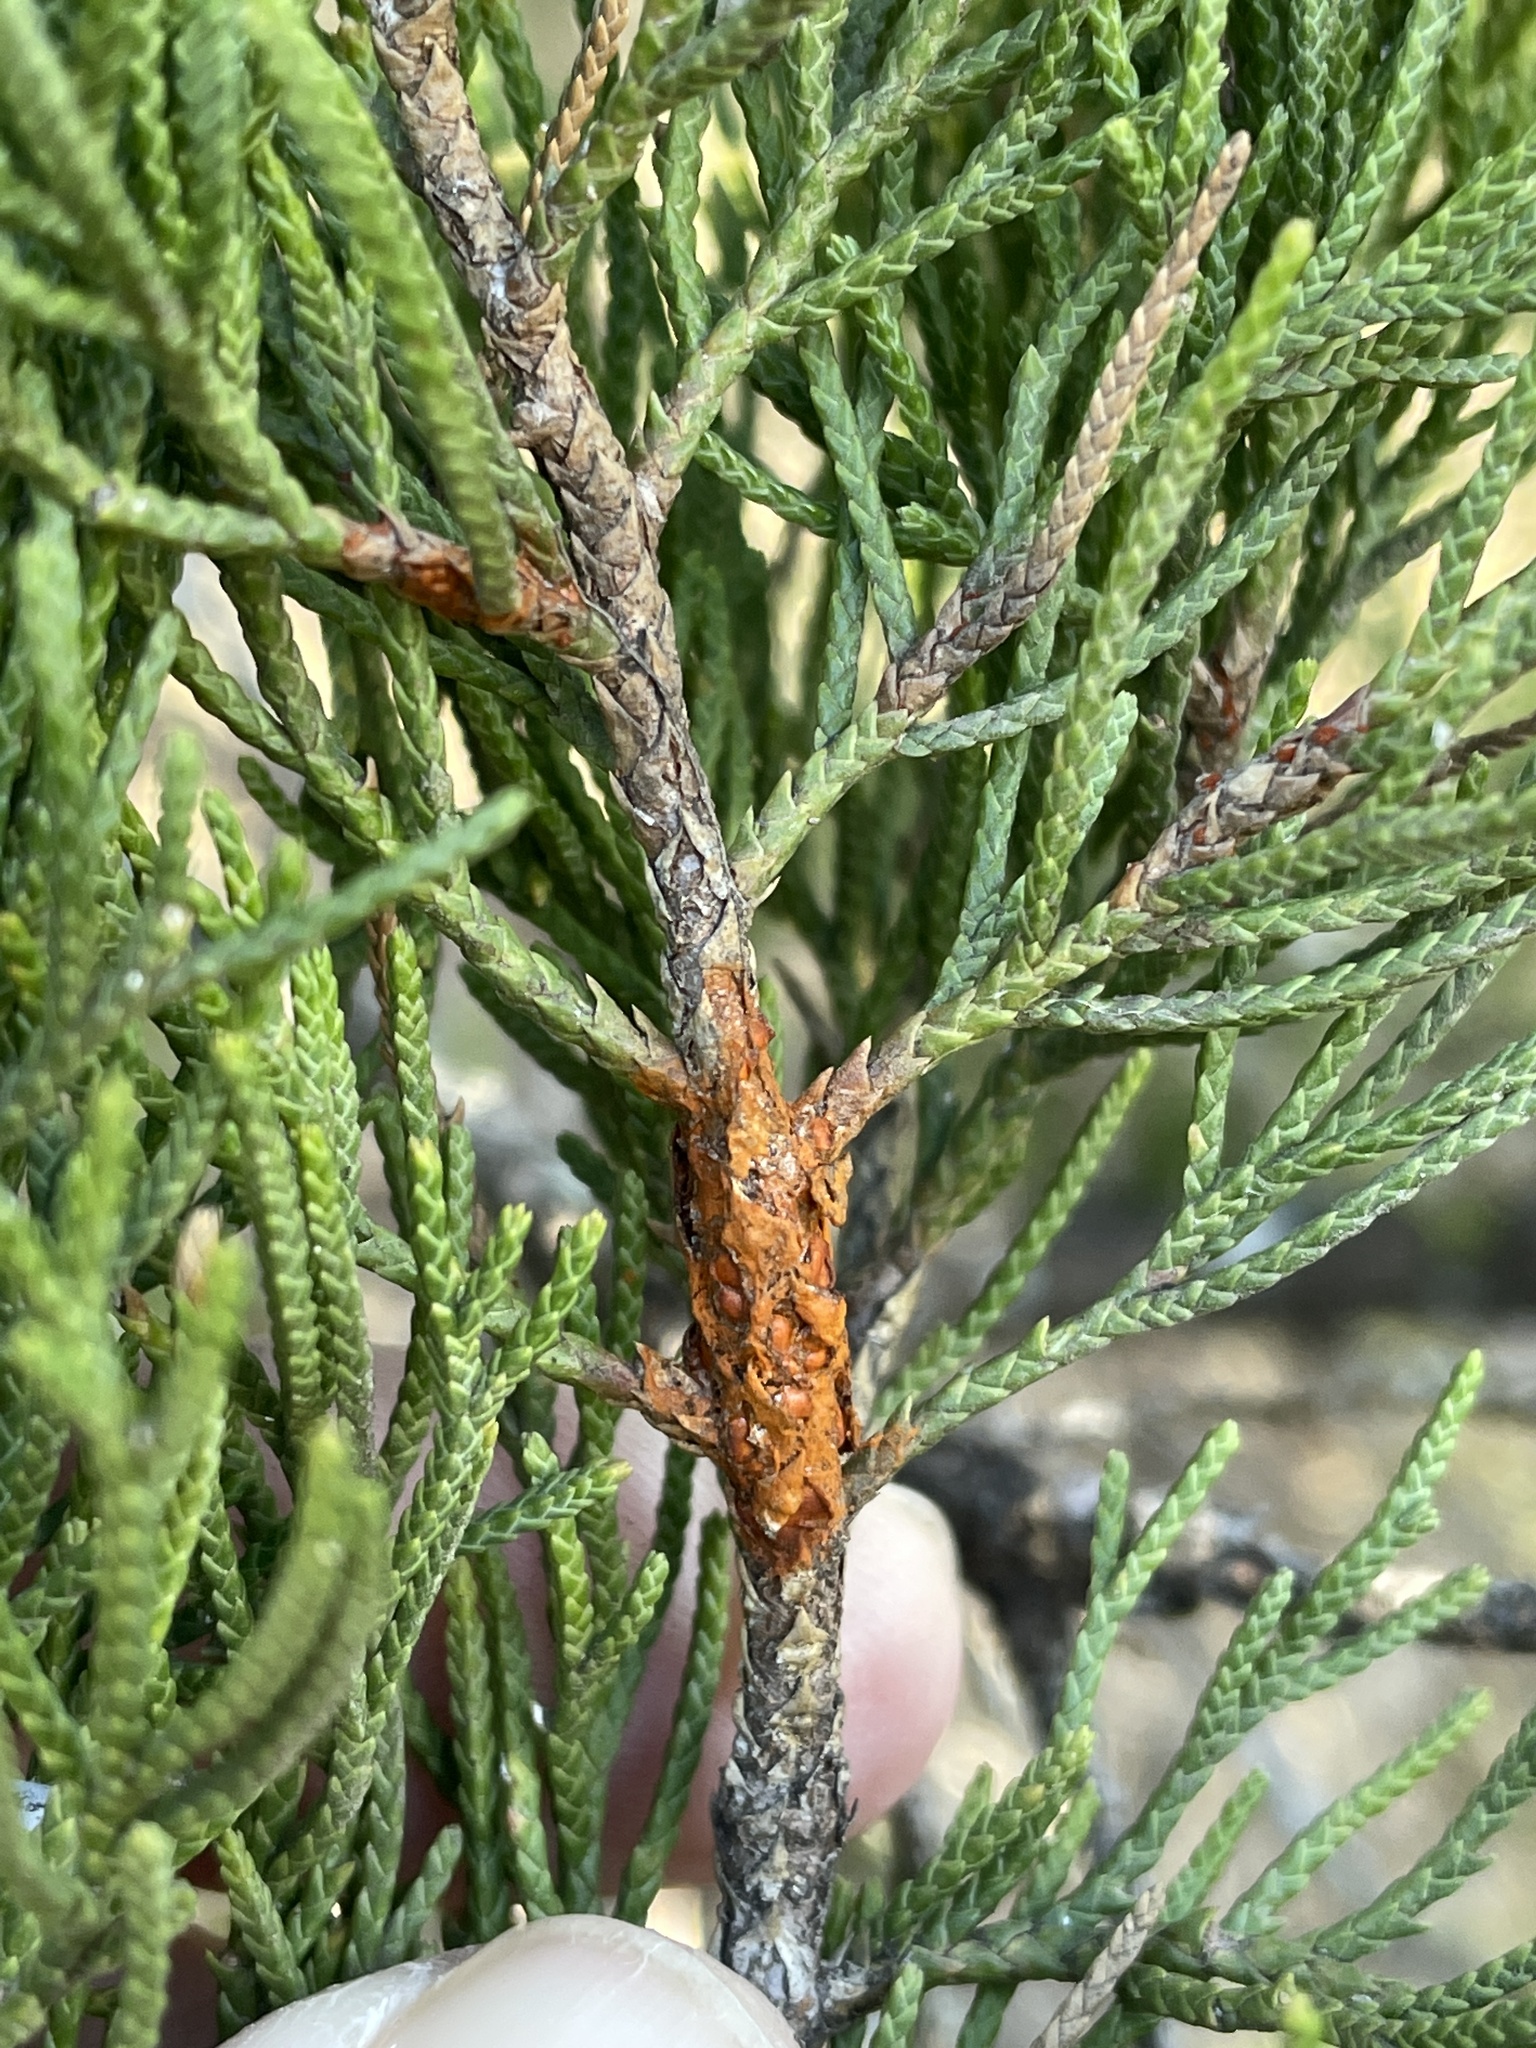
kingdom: Fungi
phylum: Basidiomycota
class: Pucciniomycetes
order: Pucciniales
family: Gymnosporangiaceae
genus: Gymnosporangium
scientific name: Gymnosporangium juniperi-virginianae
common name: Juniper-apple rust
